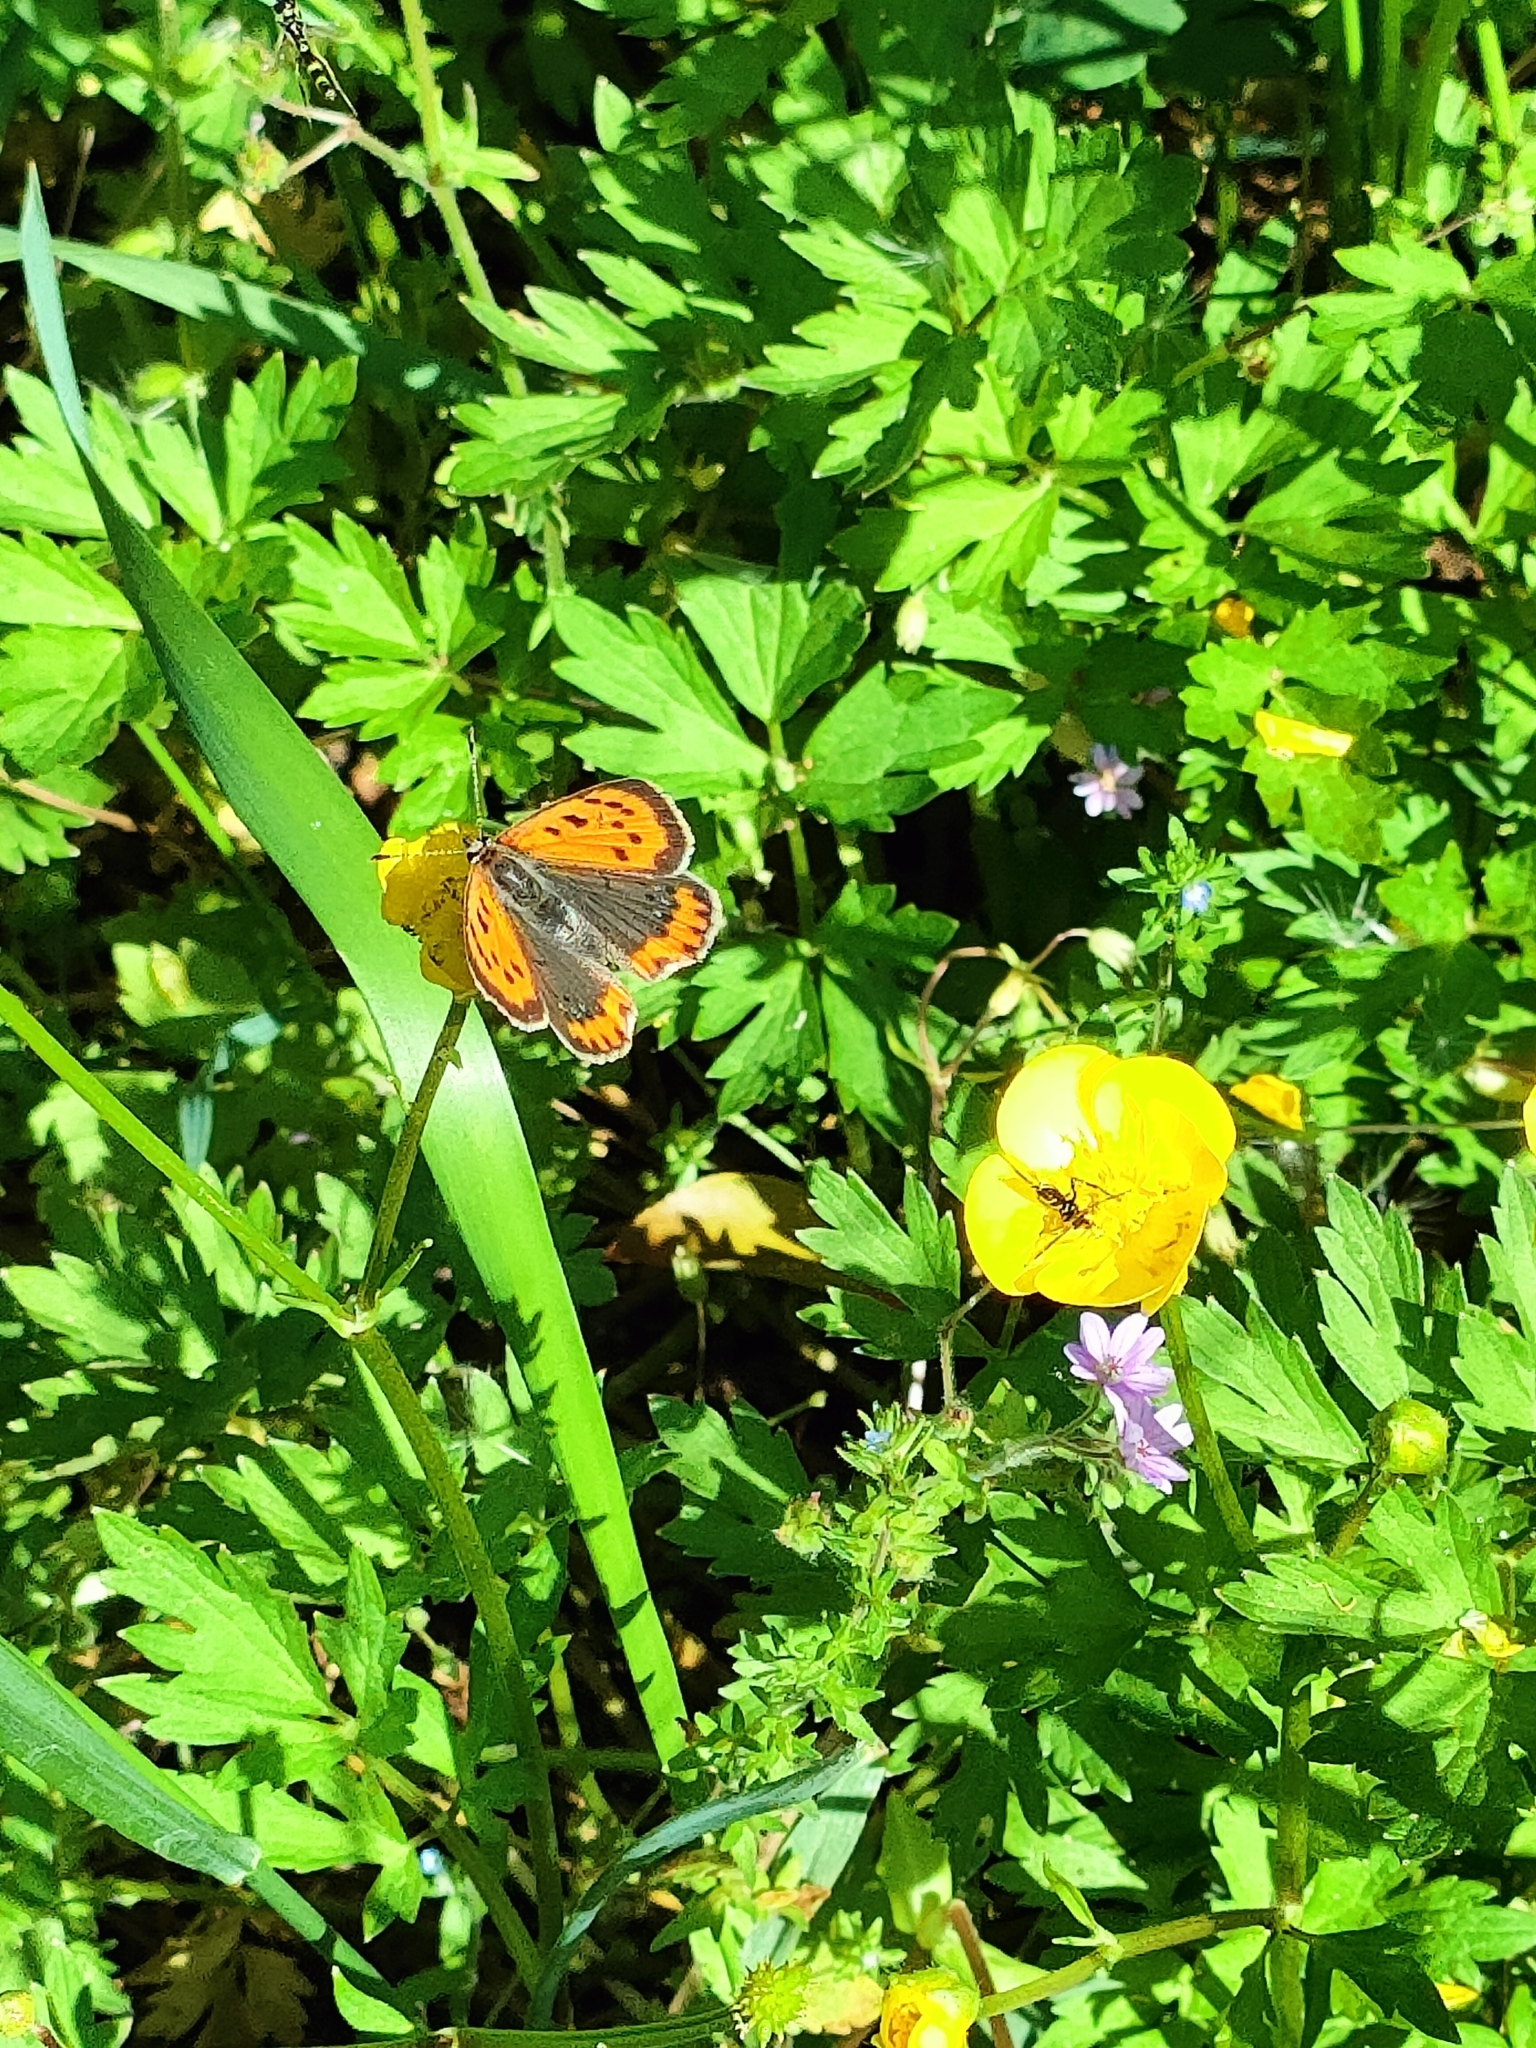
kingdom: Animalia
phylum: Arthropoda
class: Insecta
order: Lepidoptera
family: Lycaenidae
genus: Lycaena
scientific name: Lycaena phlaeas
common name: Small copper
